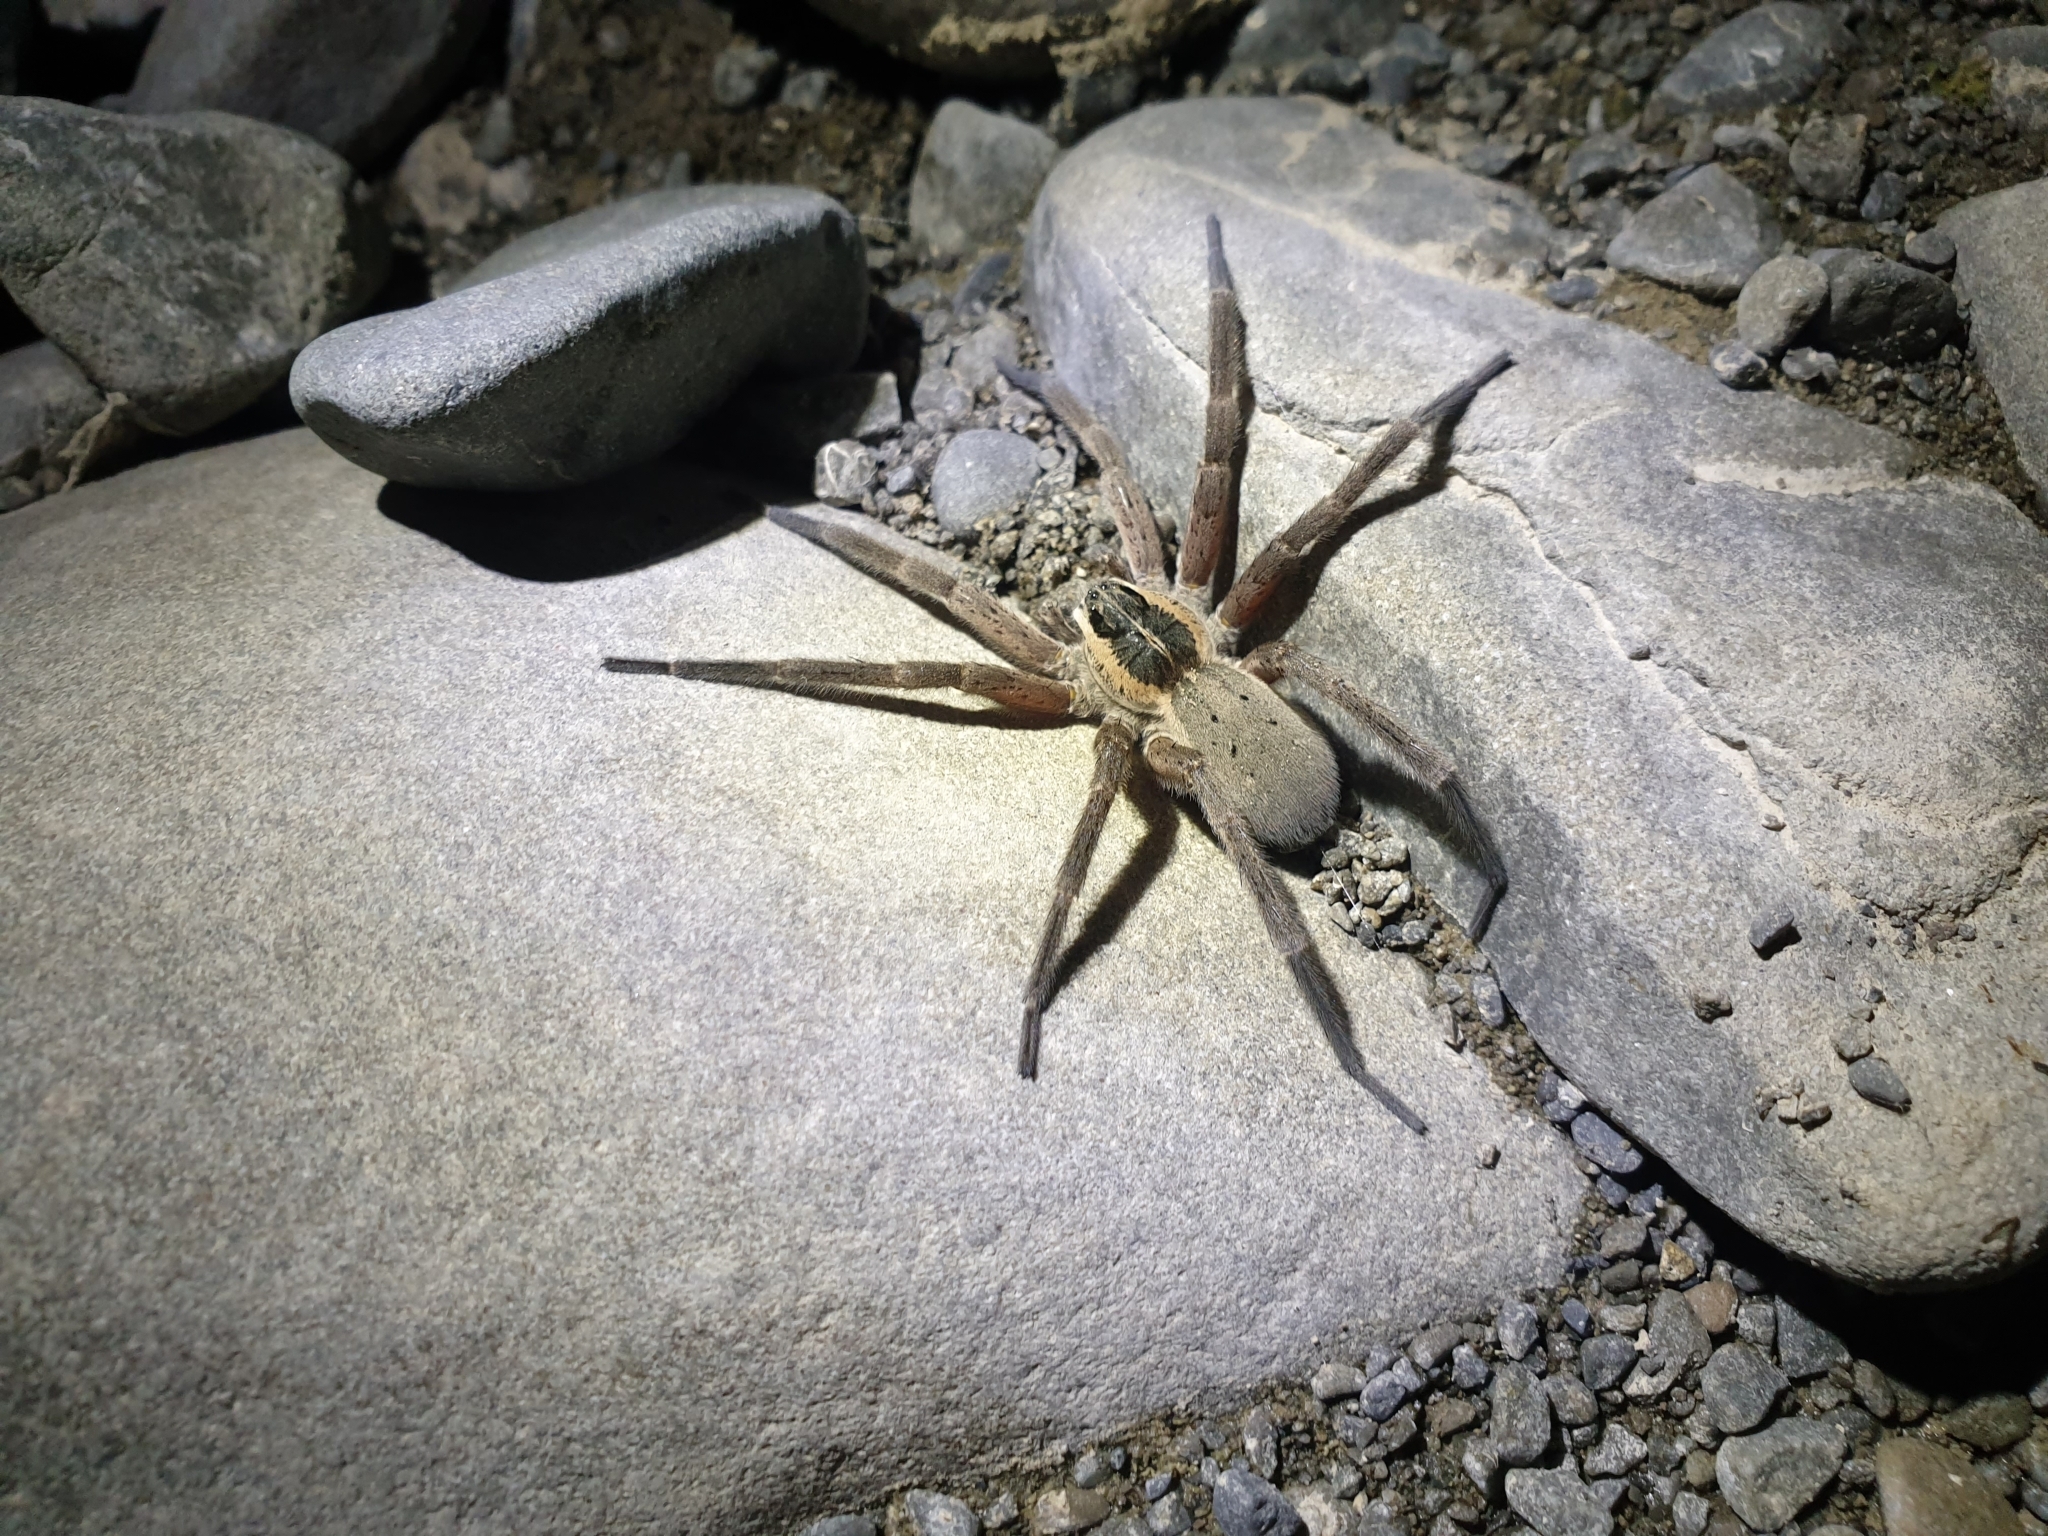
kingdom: Animalia
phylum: Arthropoda
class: Arachnida
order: Araneae
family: Pisauridae
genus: Dolomedes
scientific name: Dolomedes aquaticus
